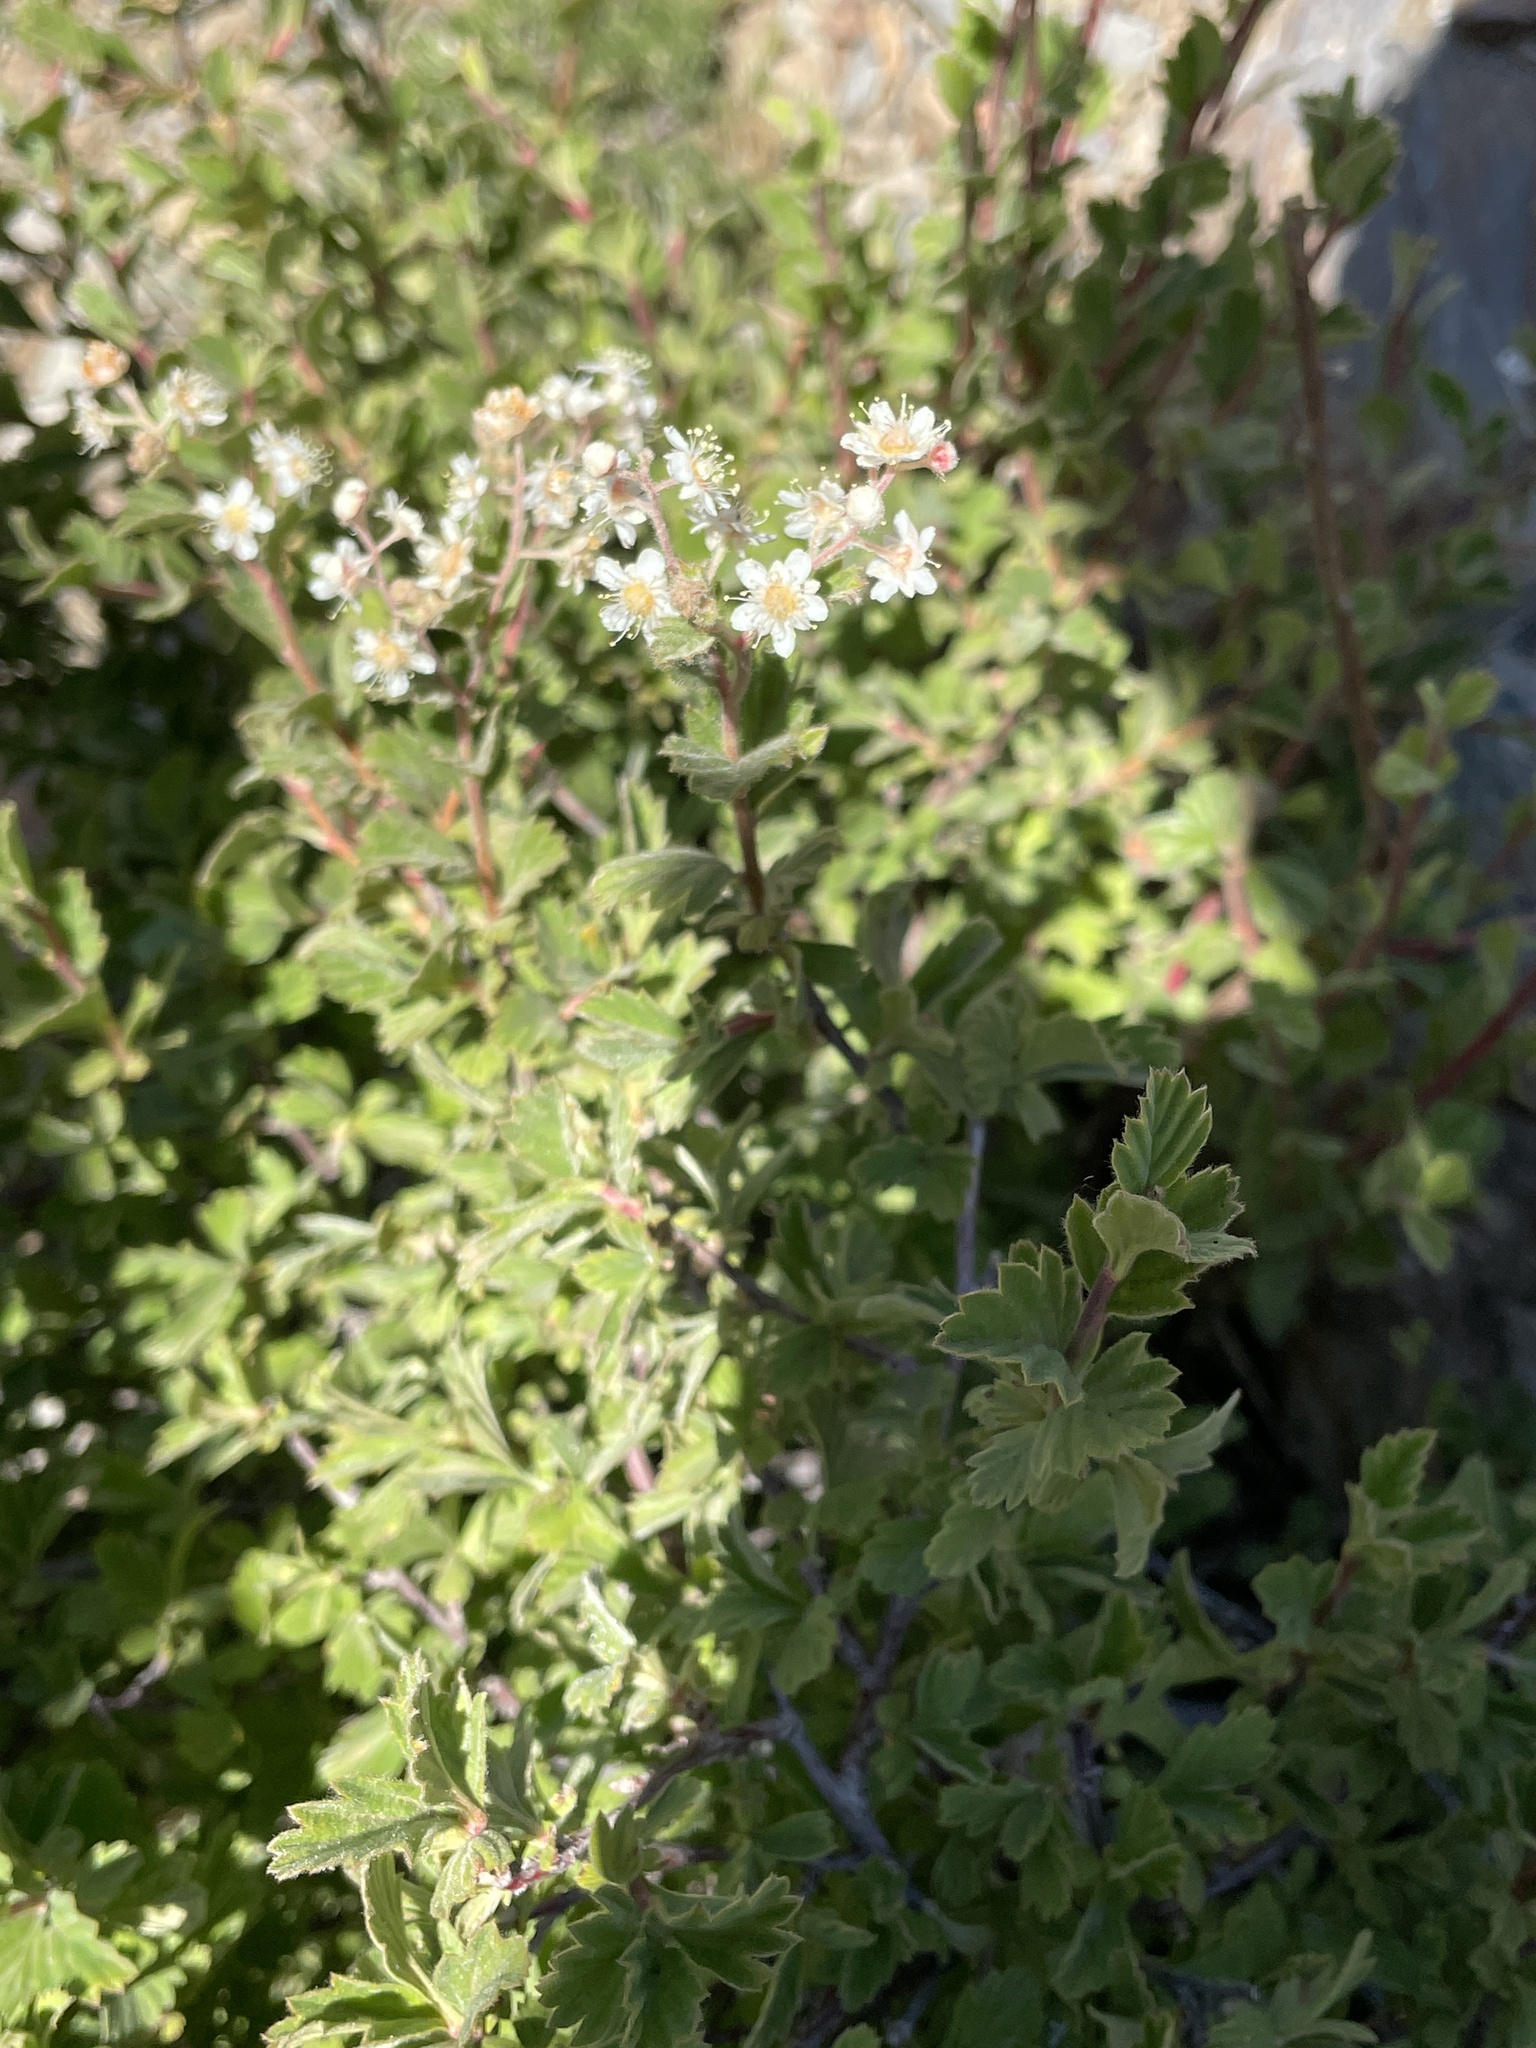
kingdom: Plantae
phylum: Tracheophyta
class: Magnoliopsida
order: Rosales
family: Rosaceae
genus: Holodiscus
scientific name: Holodiscus discolor
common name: Oceanspray
